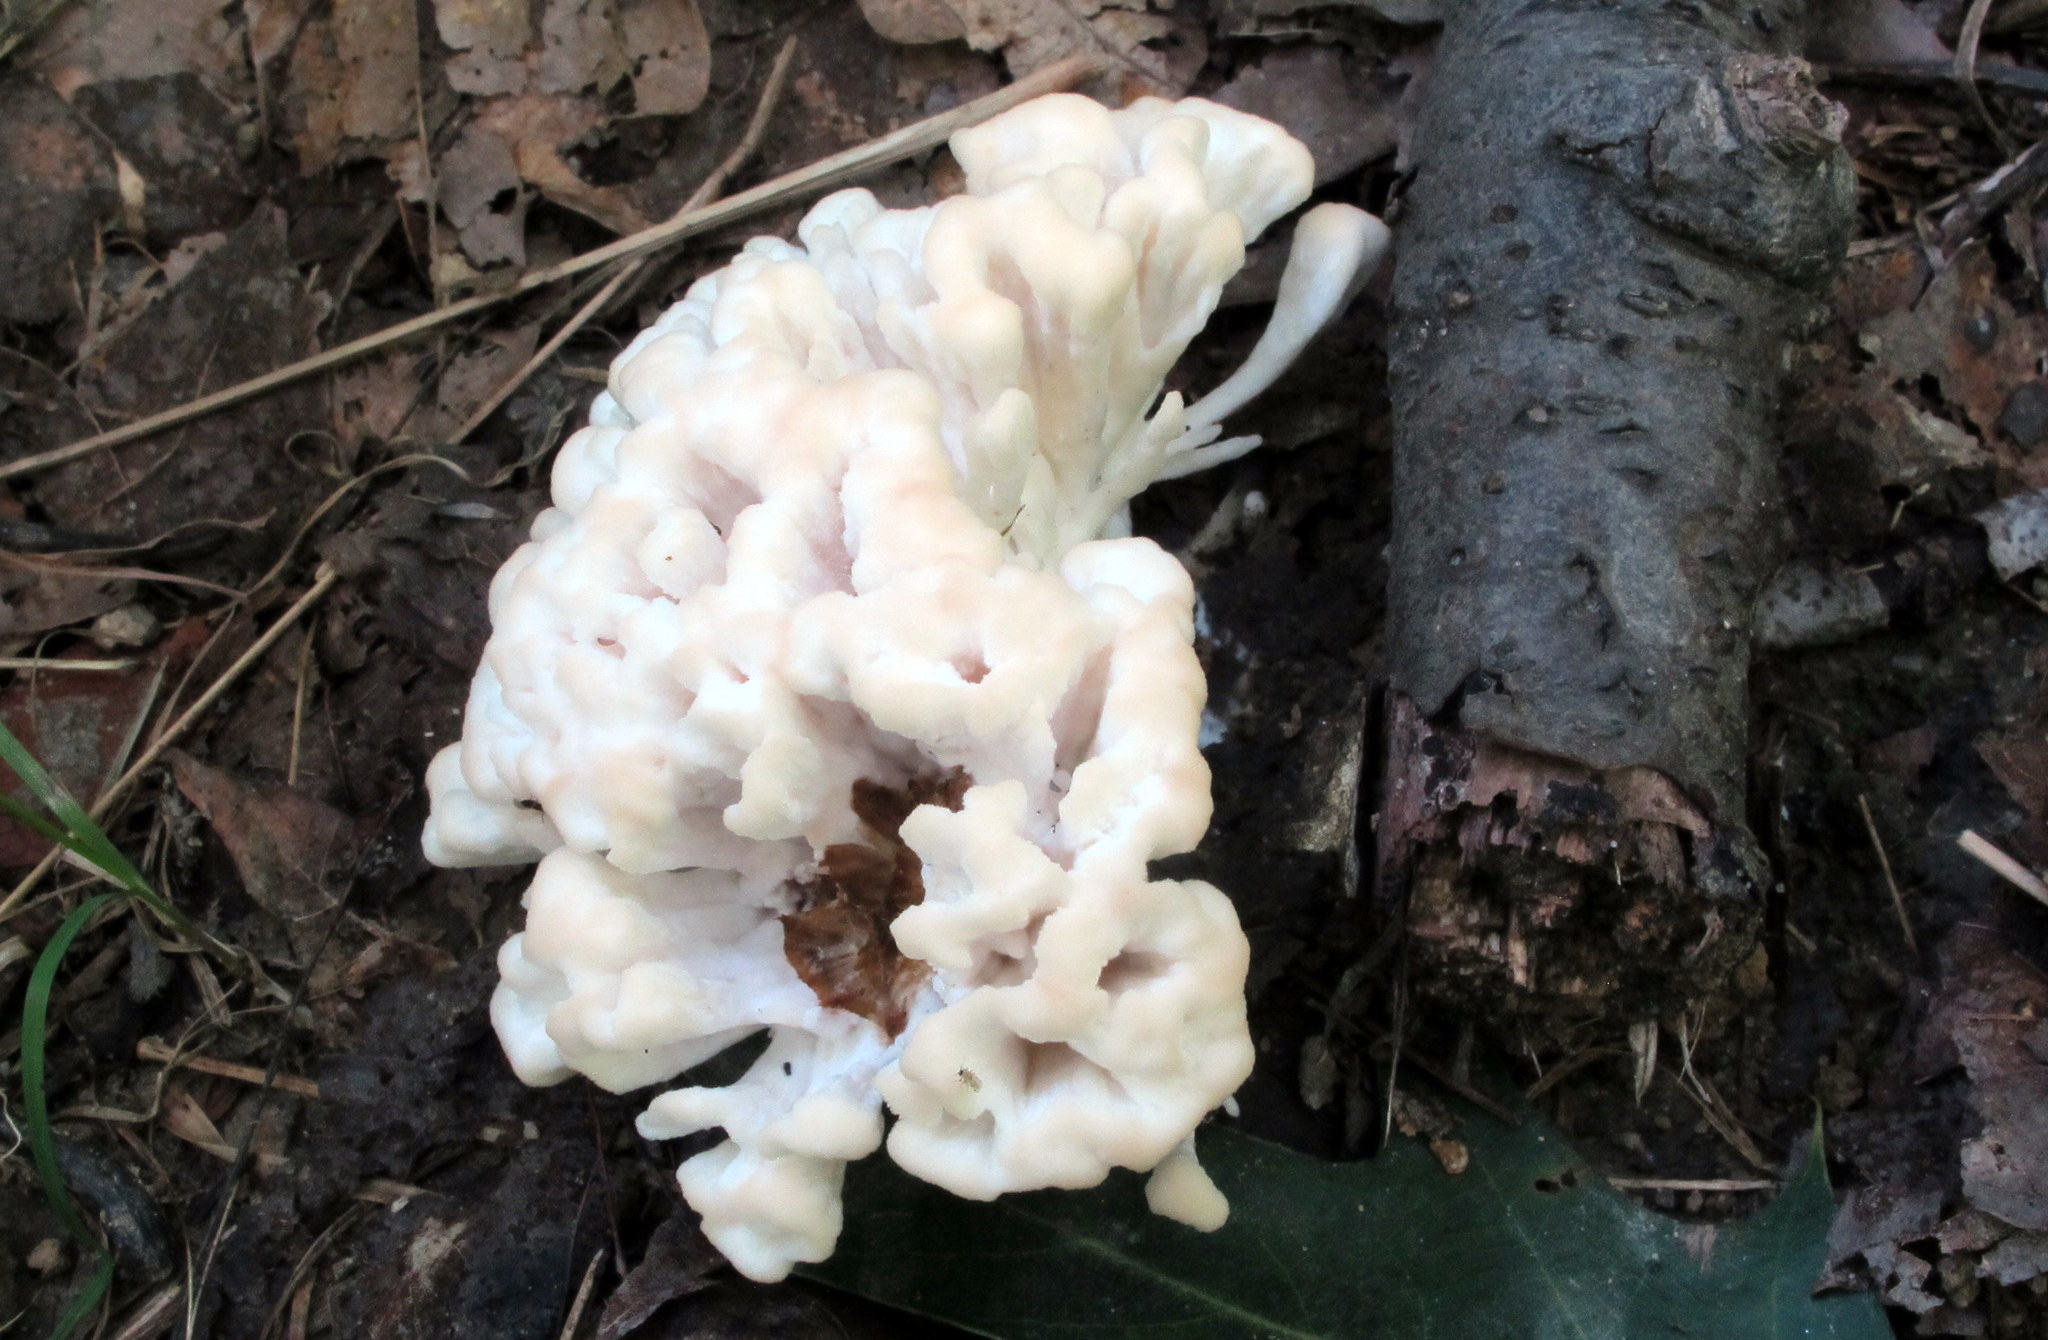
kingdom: Fungi
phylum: Basidiomycota
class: Agaricomycetes
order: Sebacinales
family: Sebacinaceae
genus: Sebacina
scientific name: Sebacina schweinitzii
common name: Jellied false coral fungus
